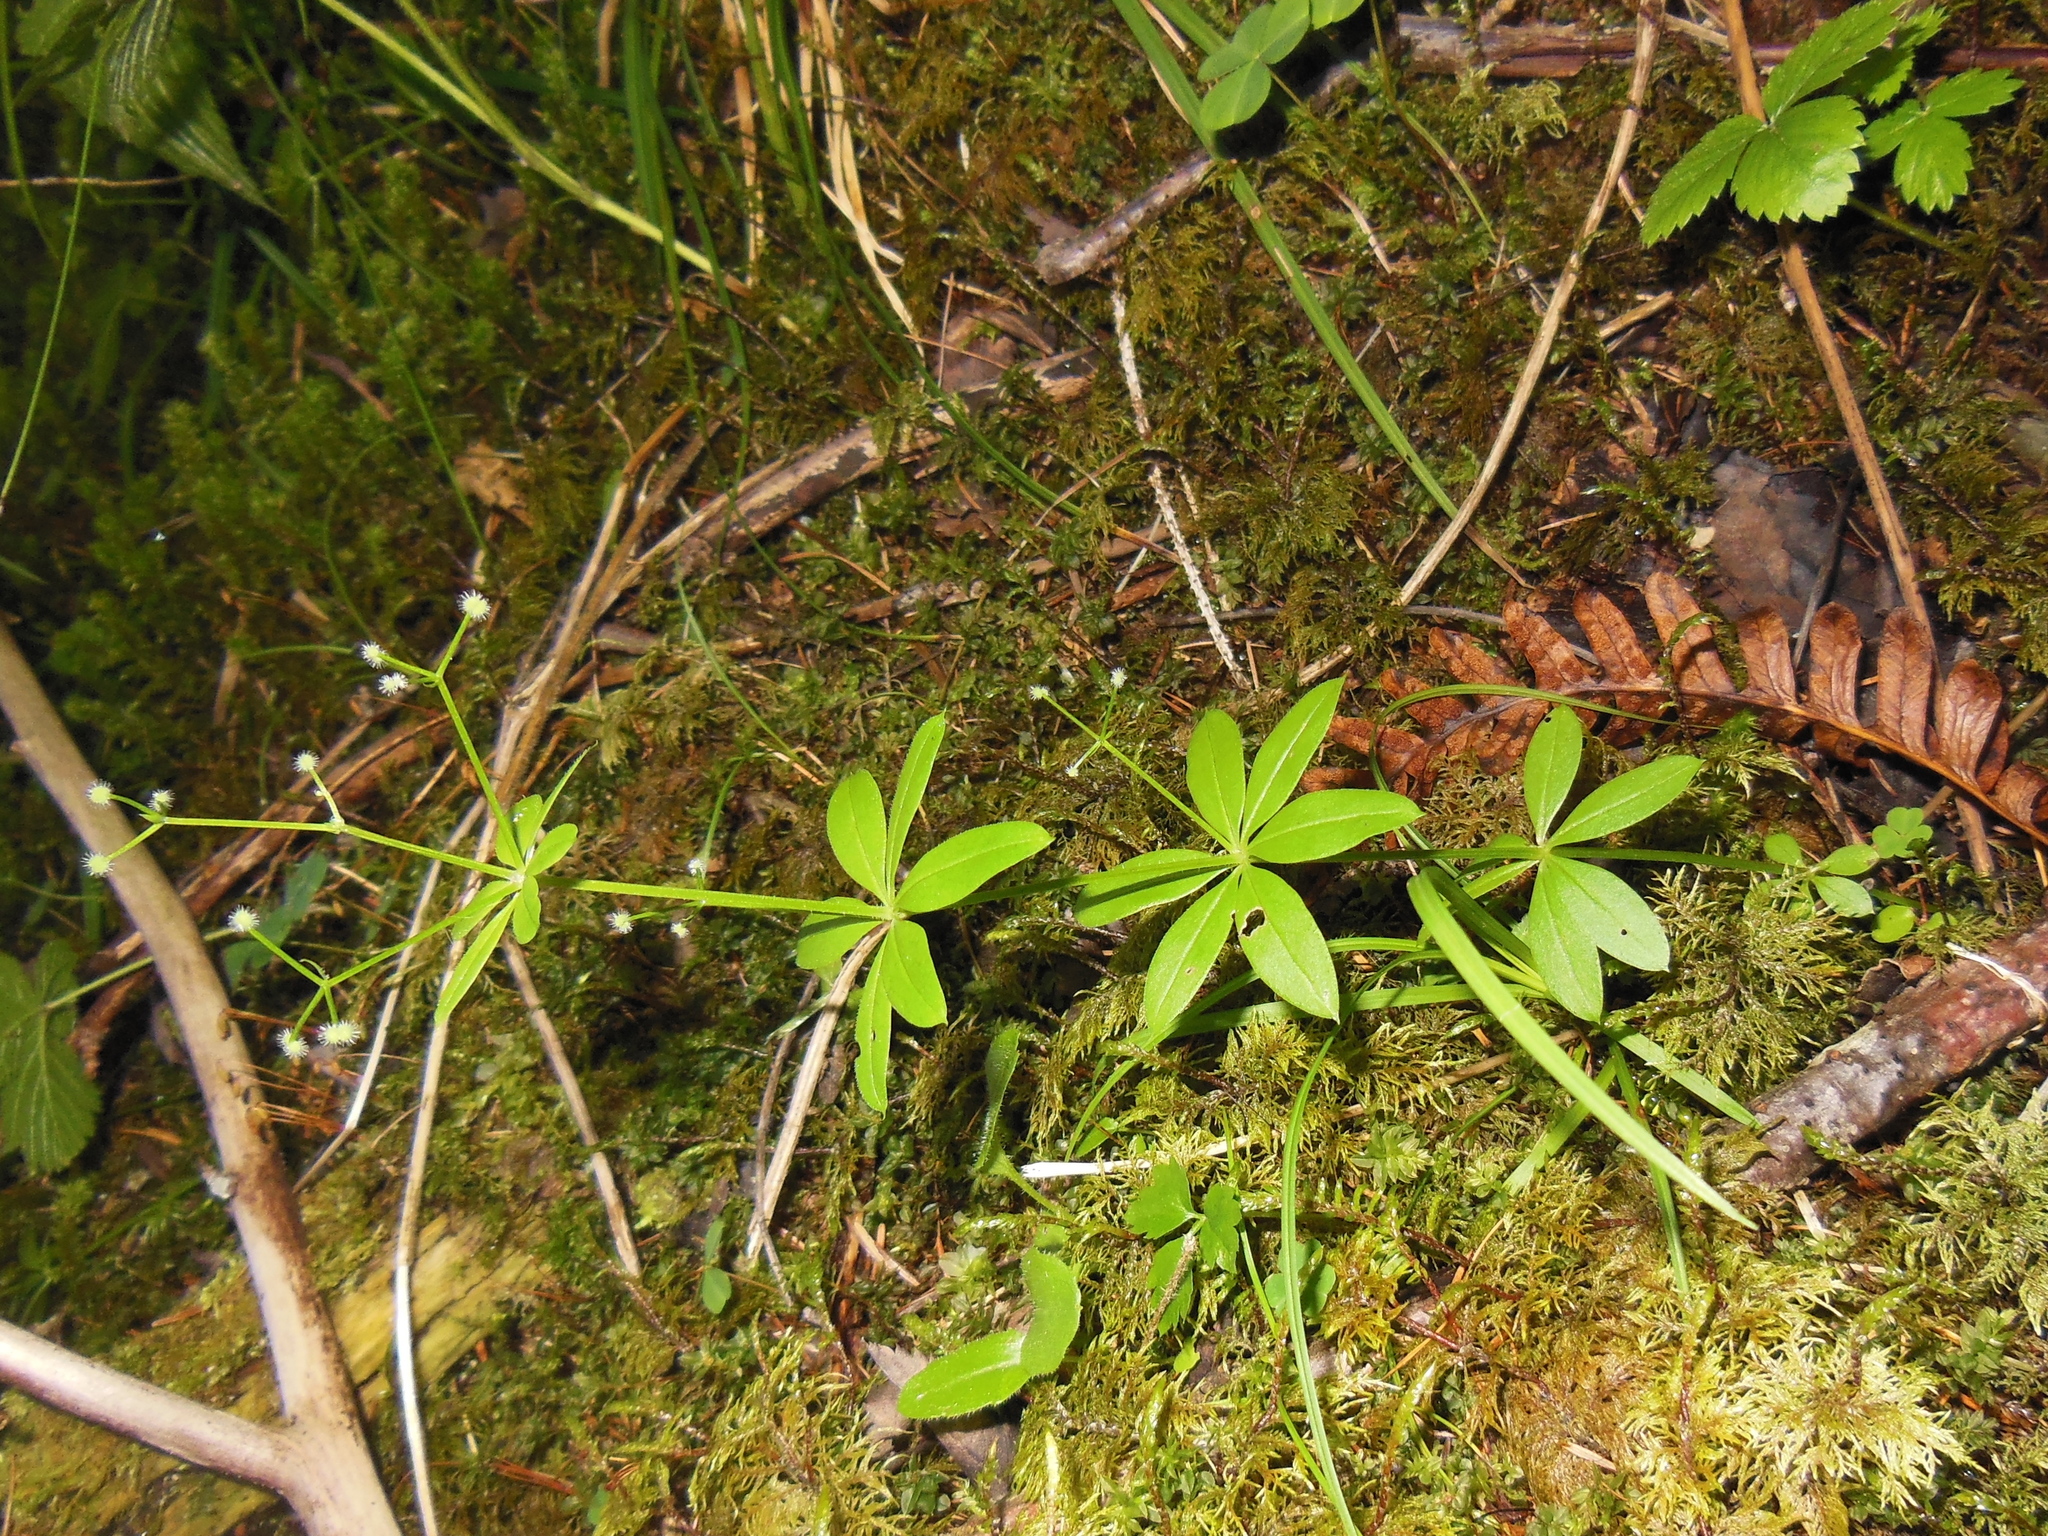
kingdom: Plantae
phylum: Tracheophyta
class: Magnoliopsida
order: Gentianales
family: Rubiaceae
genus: Galium
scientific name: Galium triflorum
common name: Fragrant bedstraw
